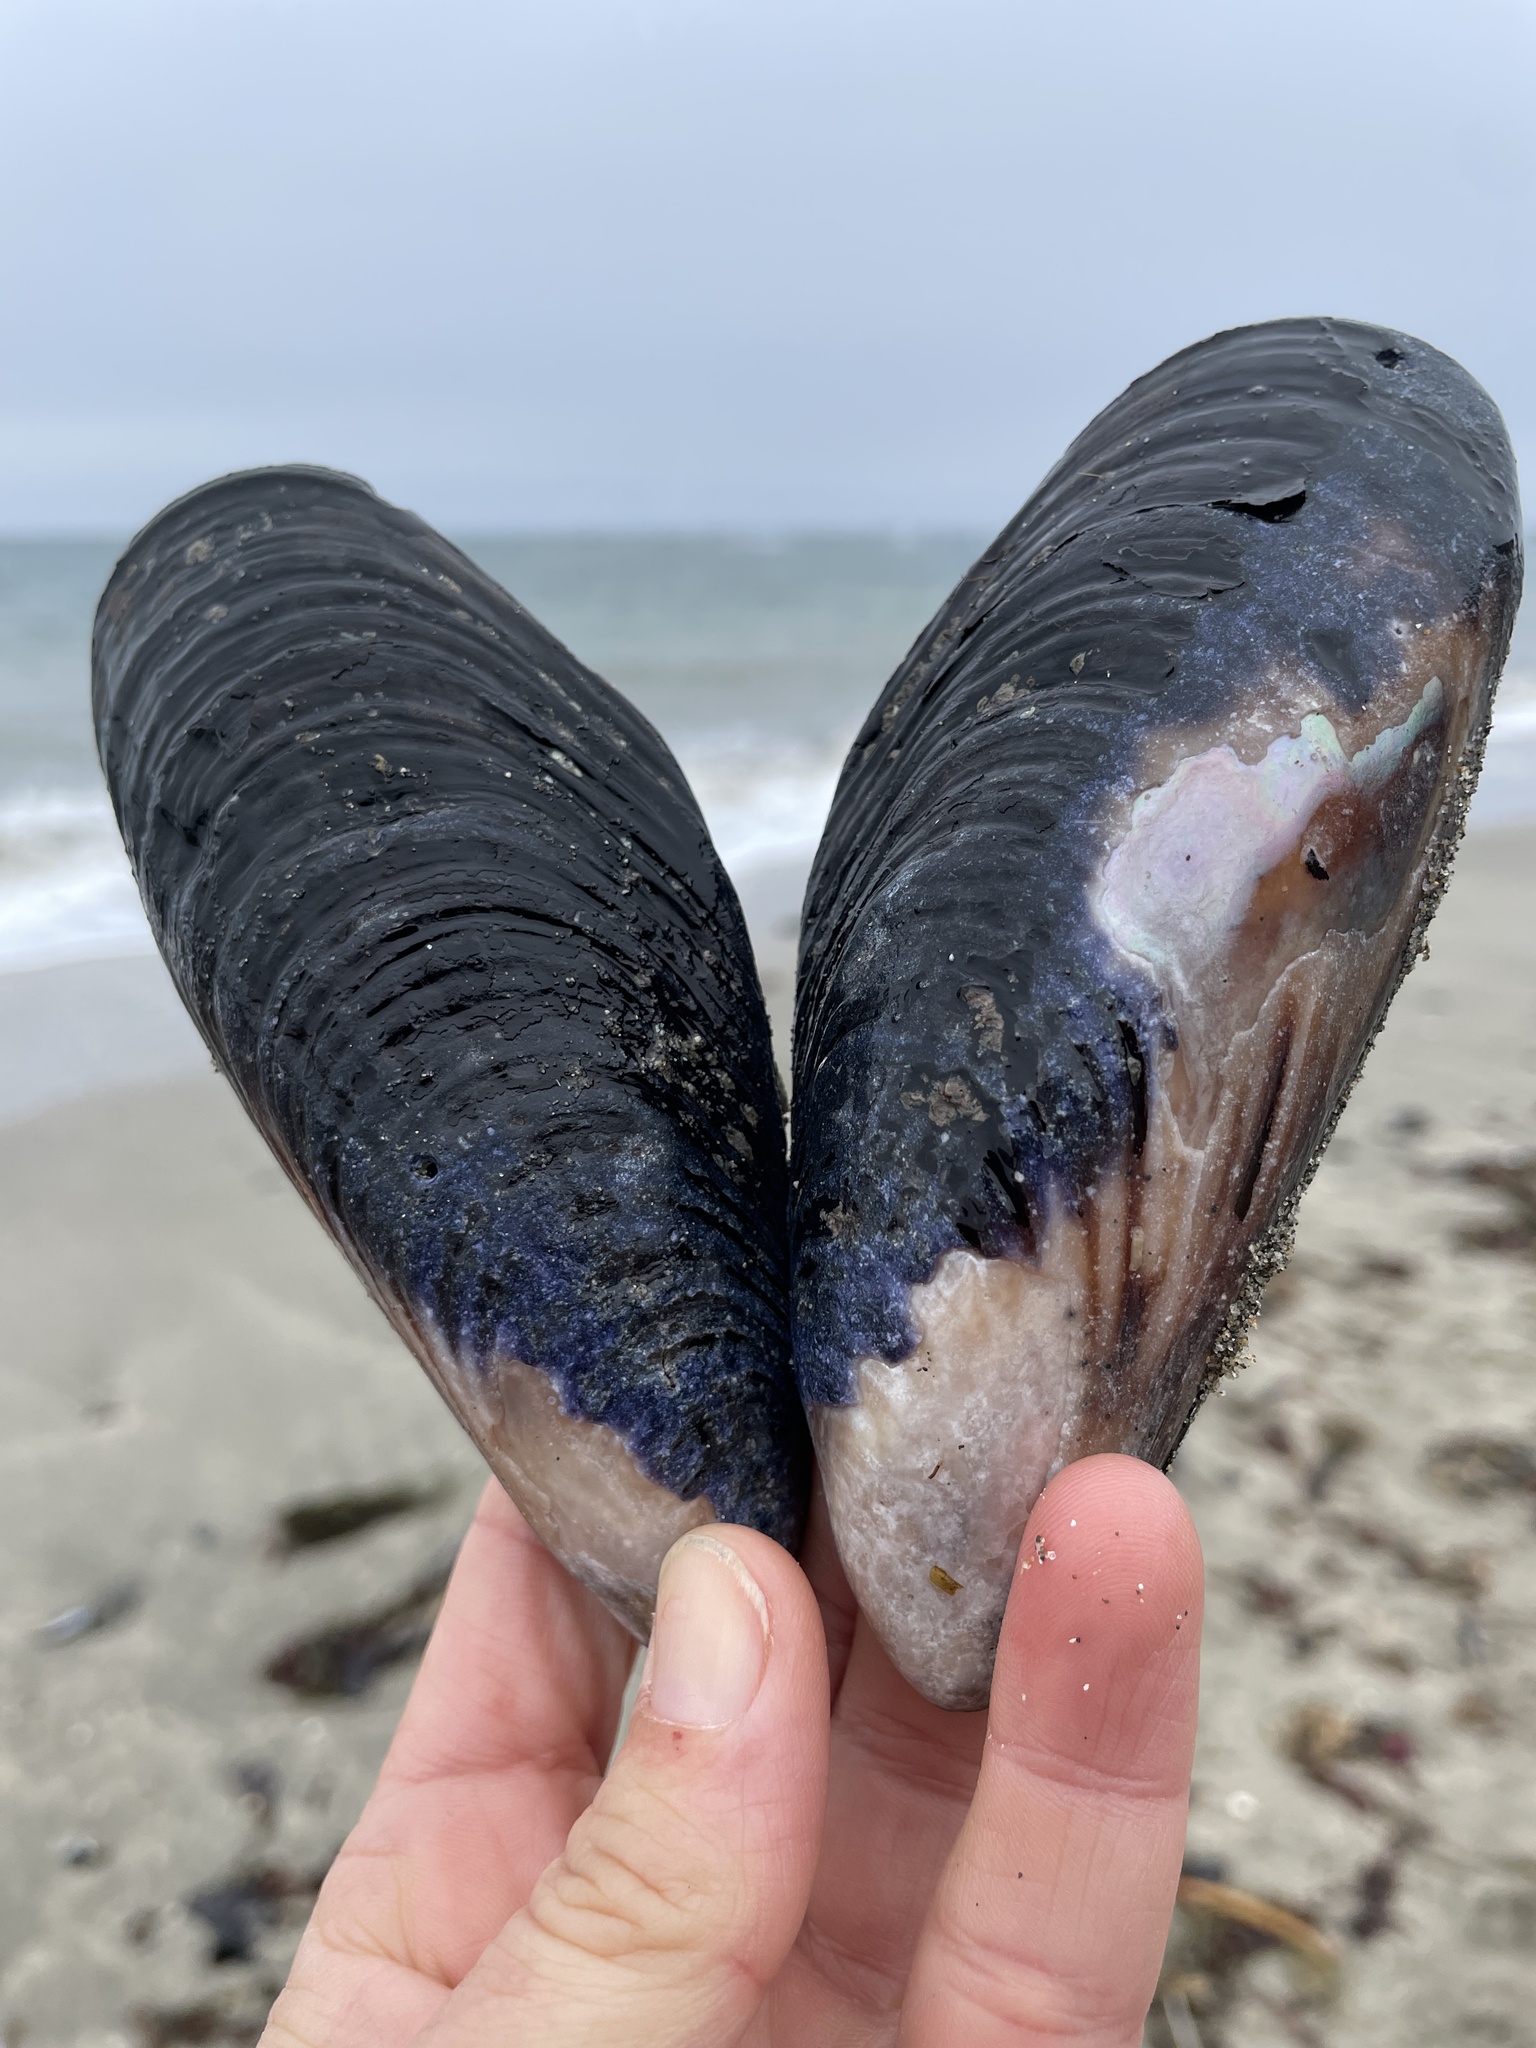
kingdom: Animalia
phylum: Mollusca
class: Bivalvia
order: Mytilida
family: Mytilidae
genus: Mytilus
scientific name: Mytilus californianus
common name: California mussel
